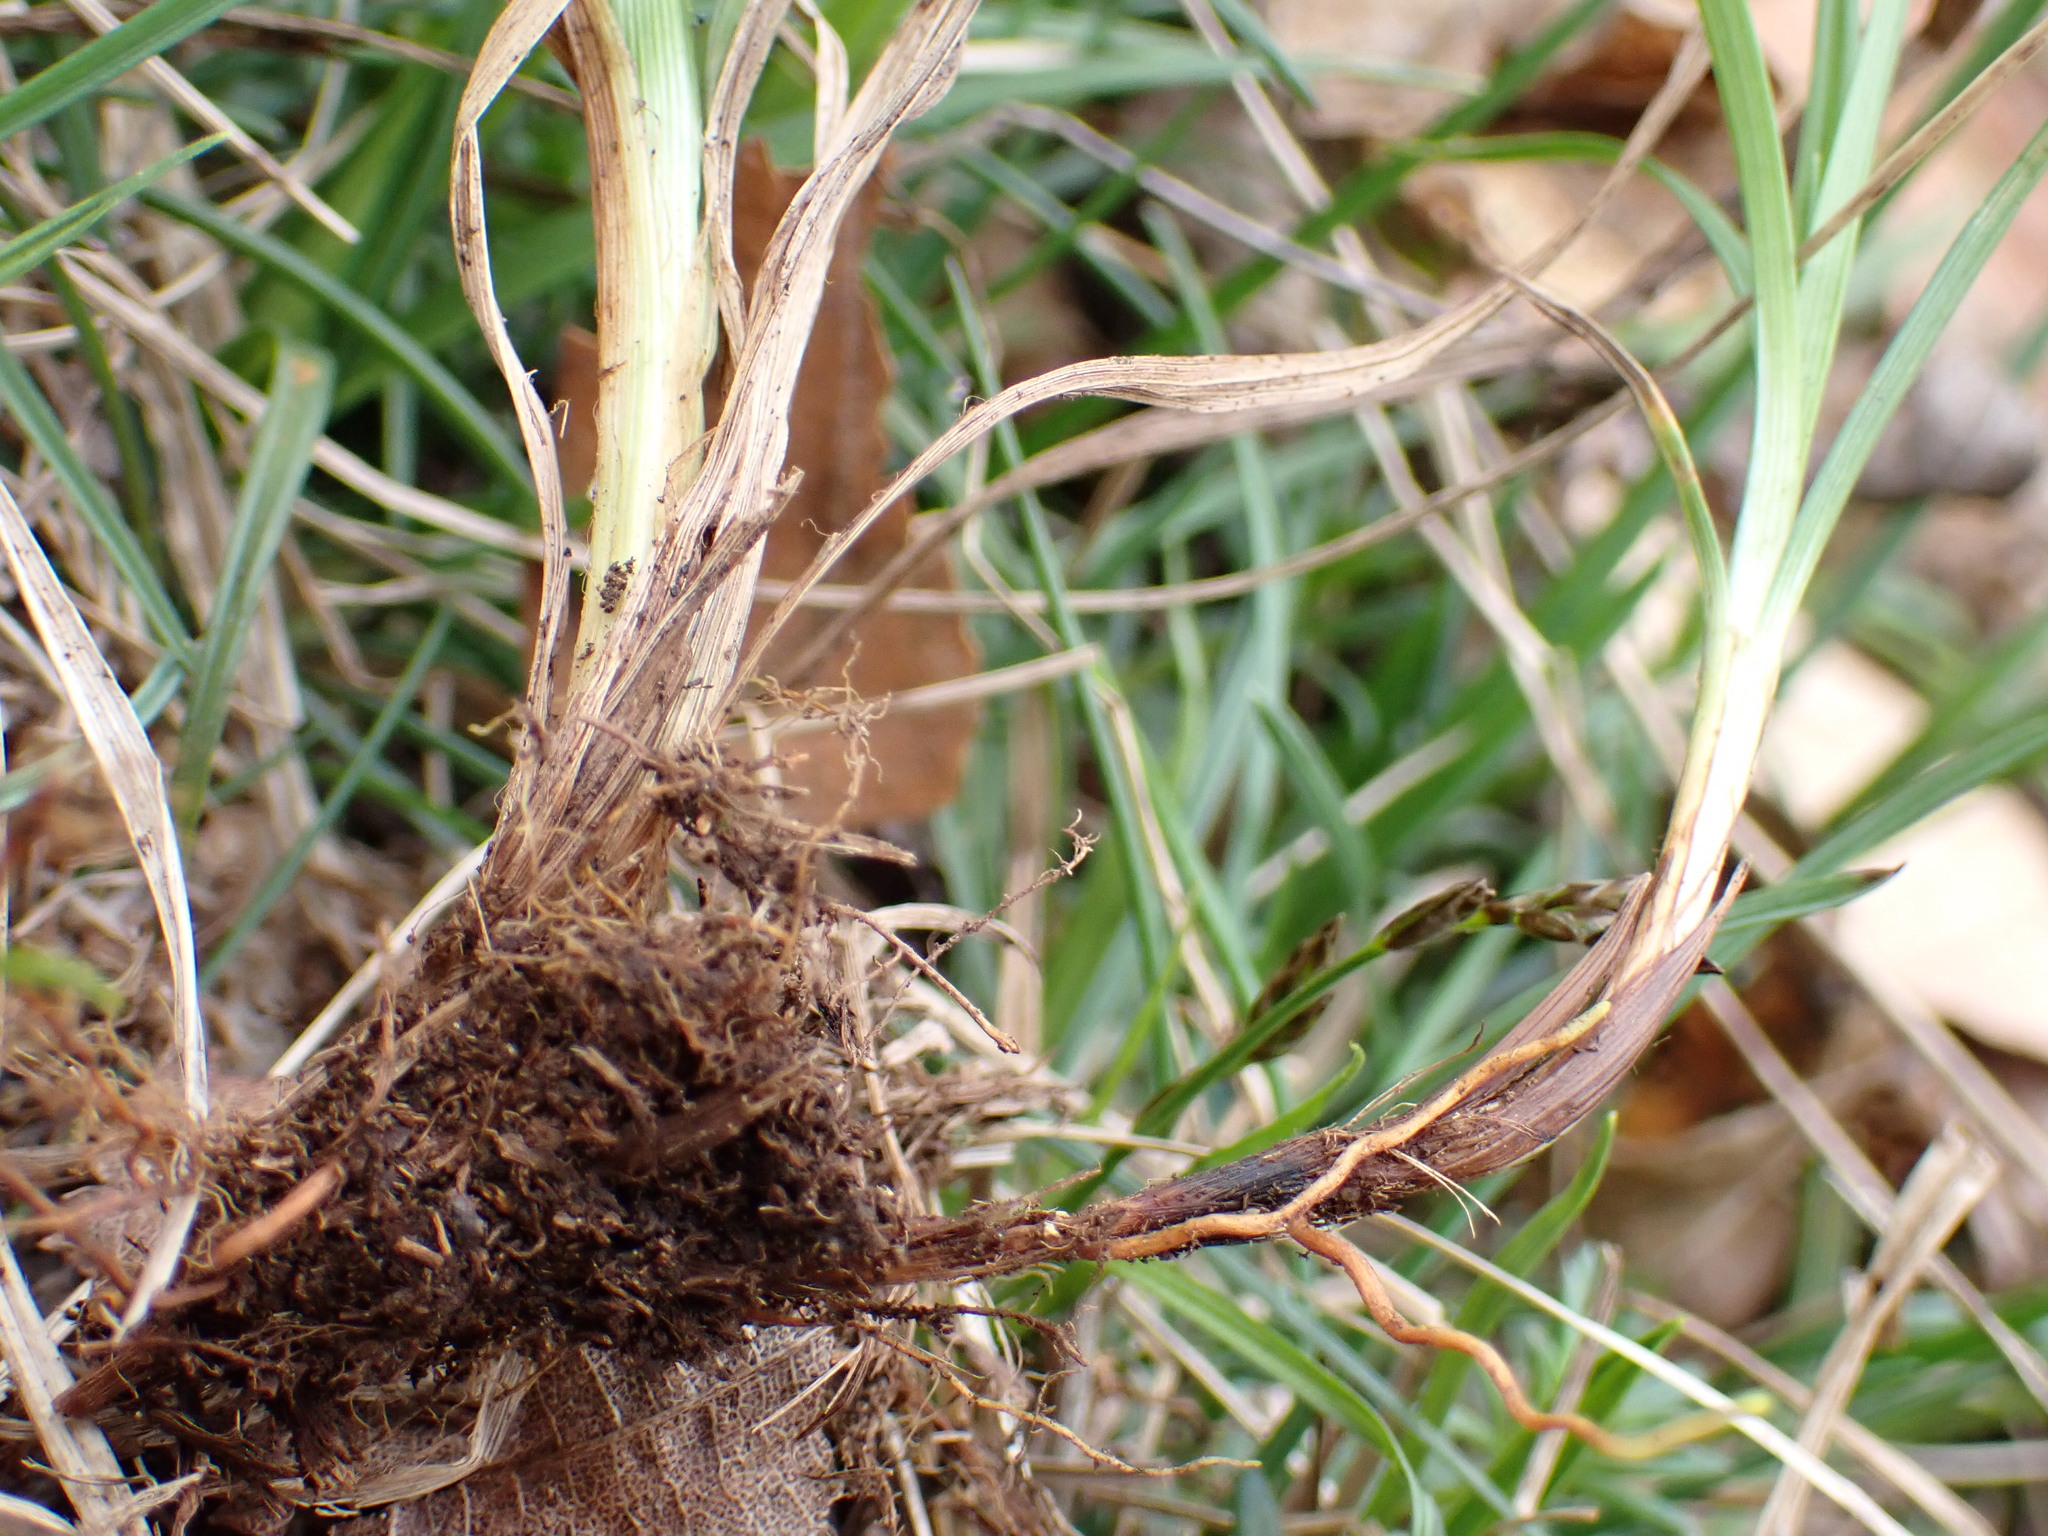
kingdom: Plantae
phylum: Tracheophyta
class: Liliopsida
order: Poales
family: Cyperaceae
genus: Carex
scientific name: Carex caryophyllea
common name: Spring sedge
